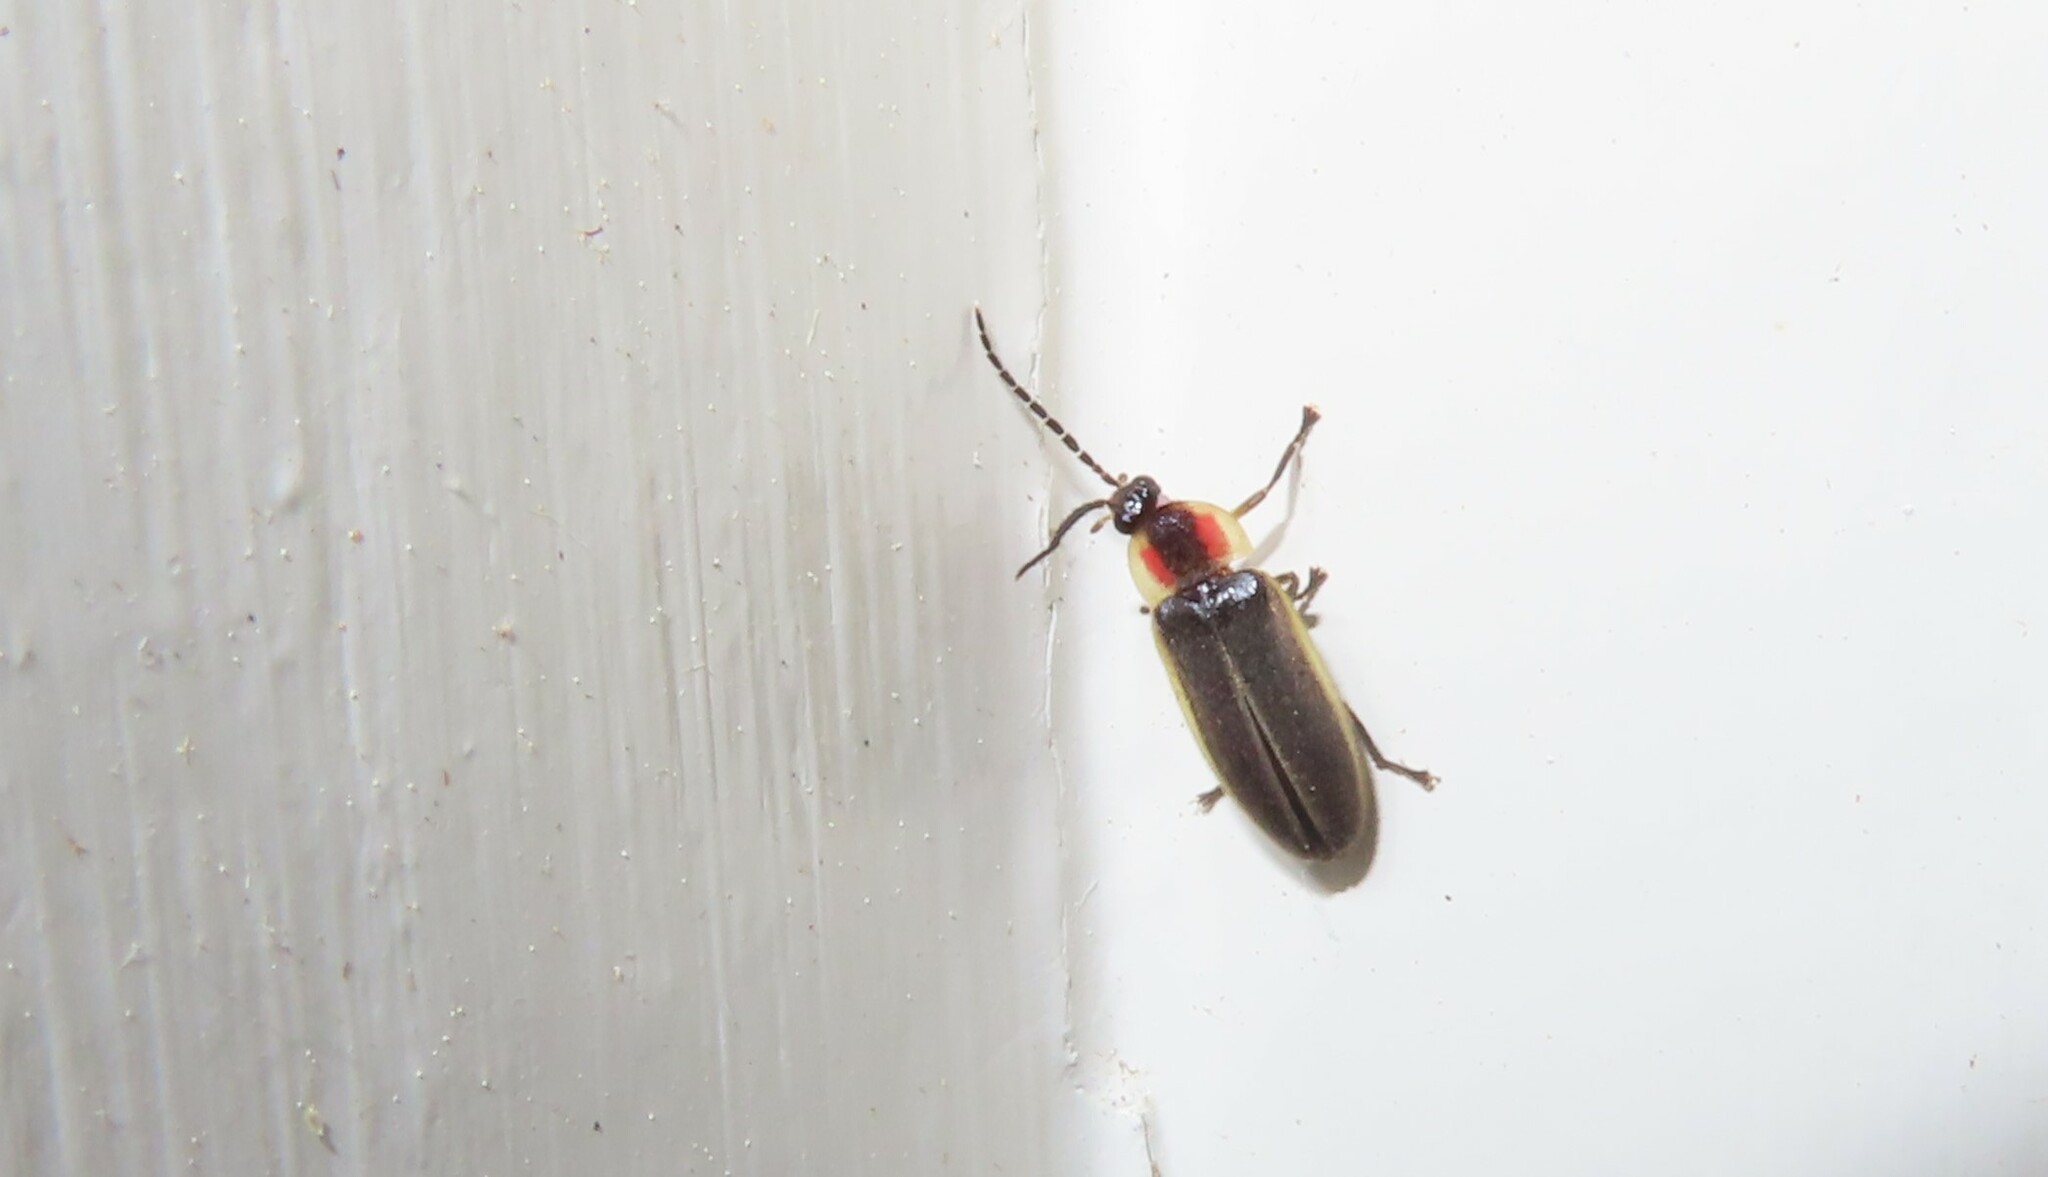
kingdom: Animalia
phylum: Arthropoda
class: Insecta
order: Coleoptera
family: Lampyridae
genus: Photinus
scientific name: Photinus pyralis
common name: Big dipper firefly
